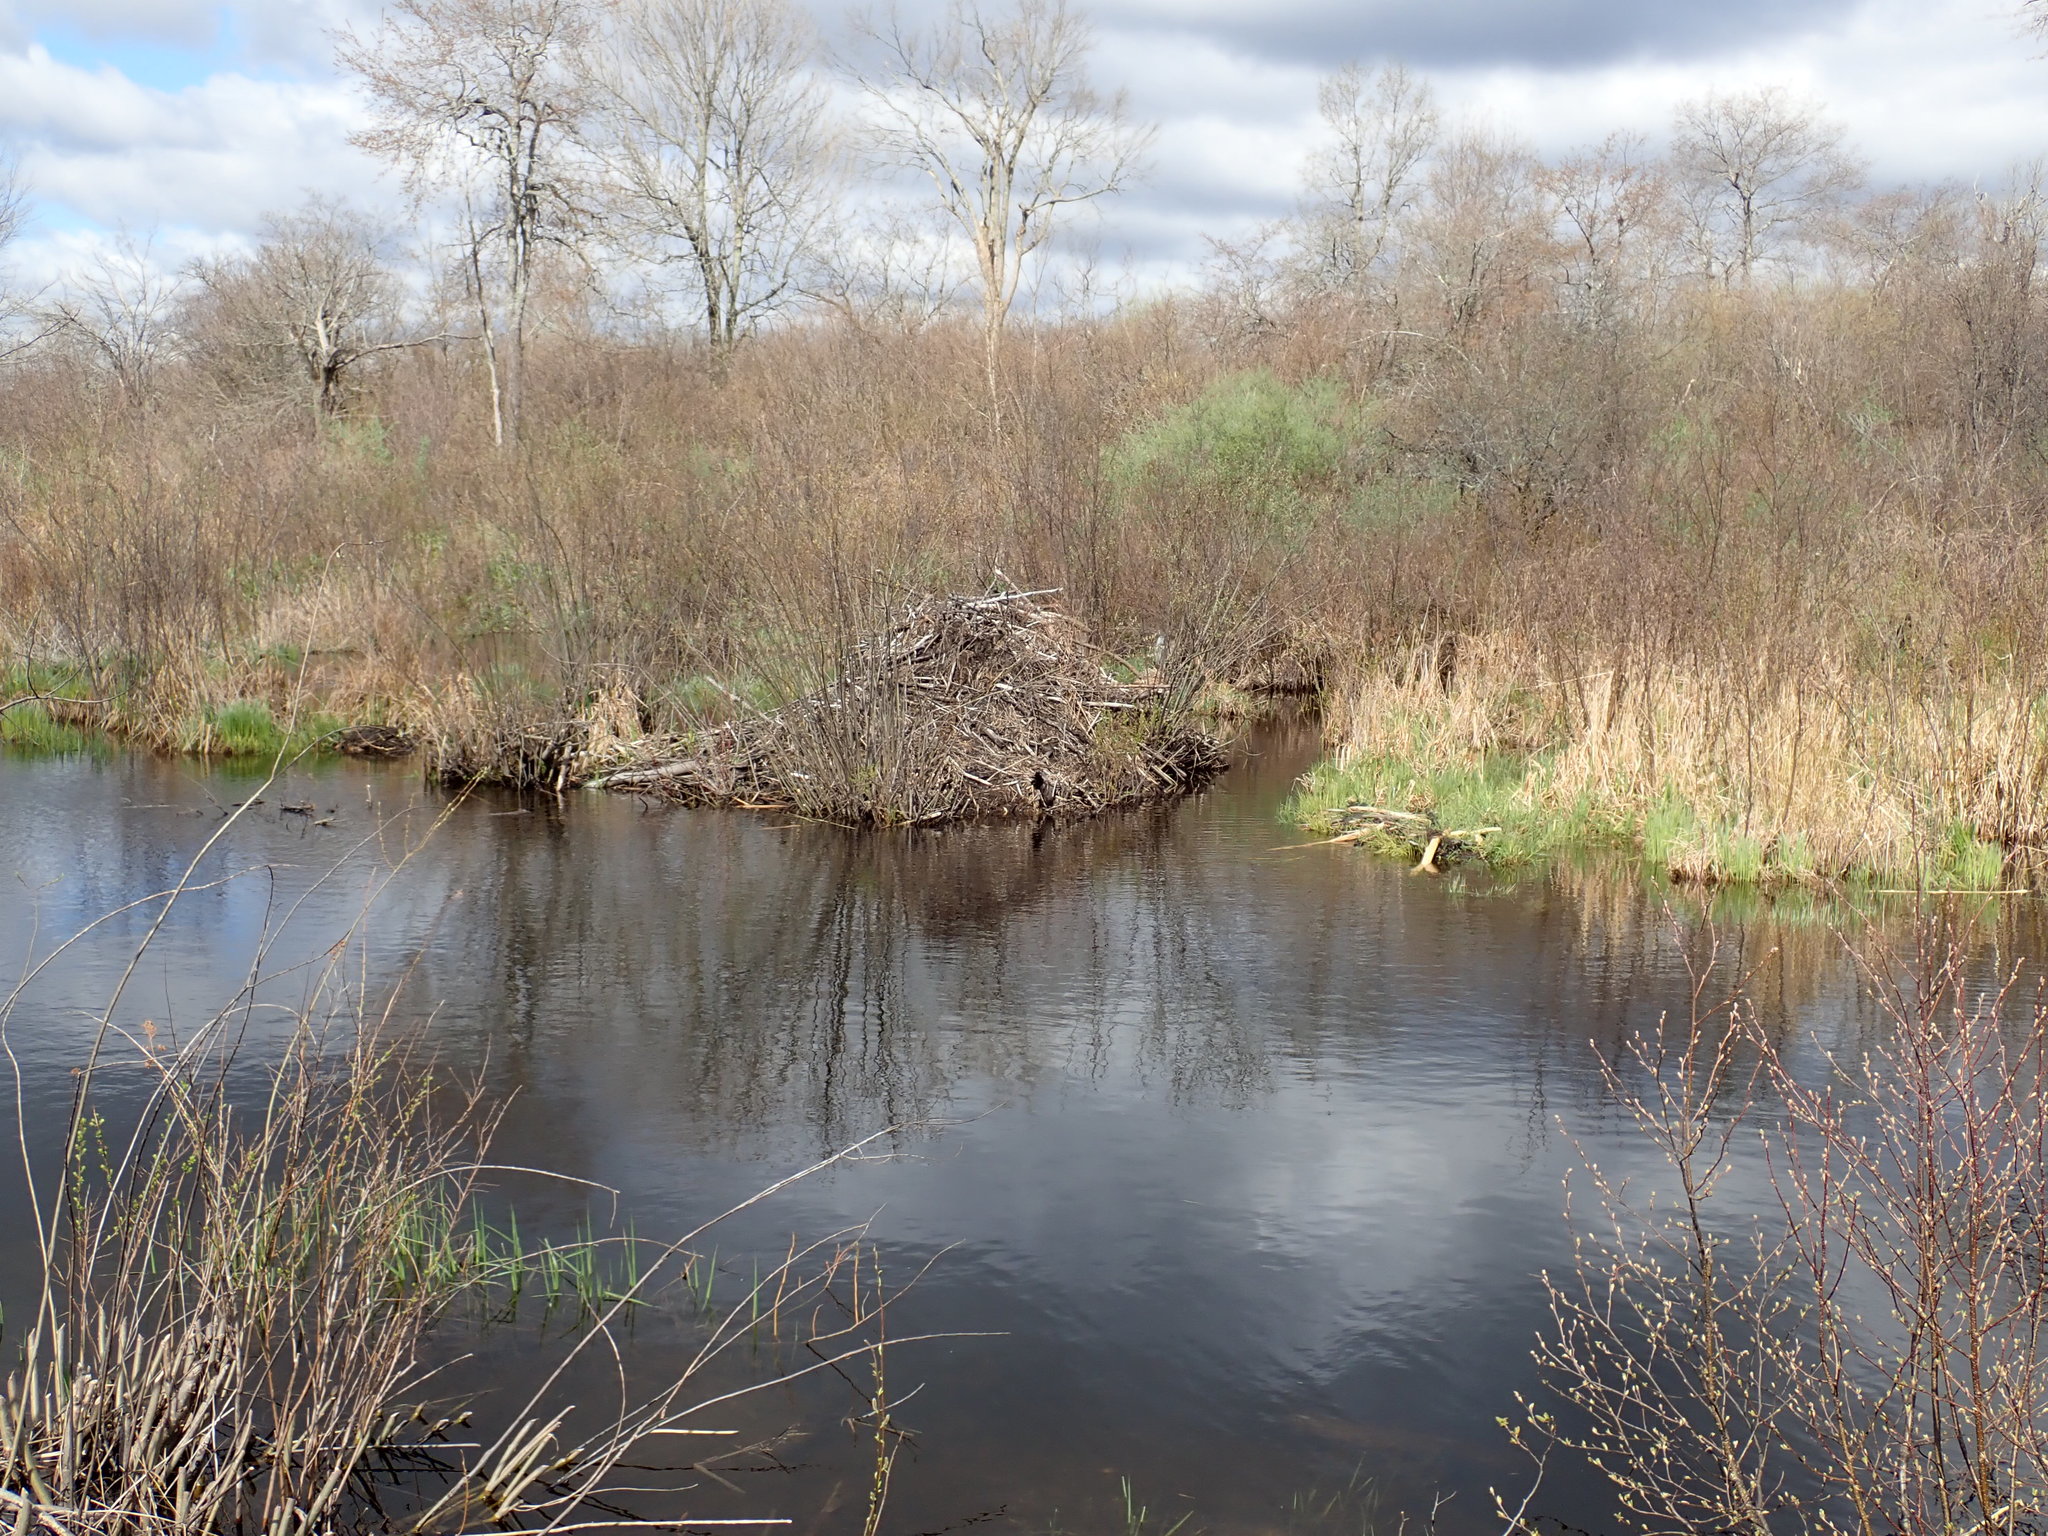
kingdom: Animalia
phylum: Chordata
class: Mammalia
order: Rodentia
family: Castoridae
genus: Castor
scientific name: Castor canadensis
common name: American beaver
